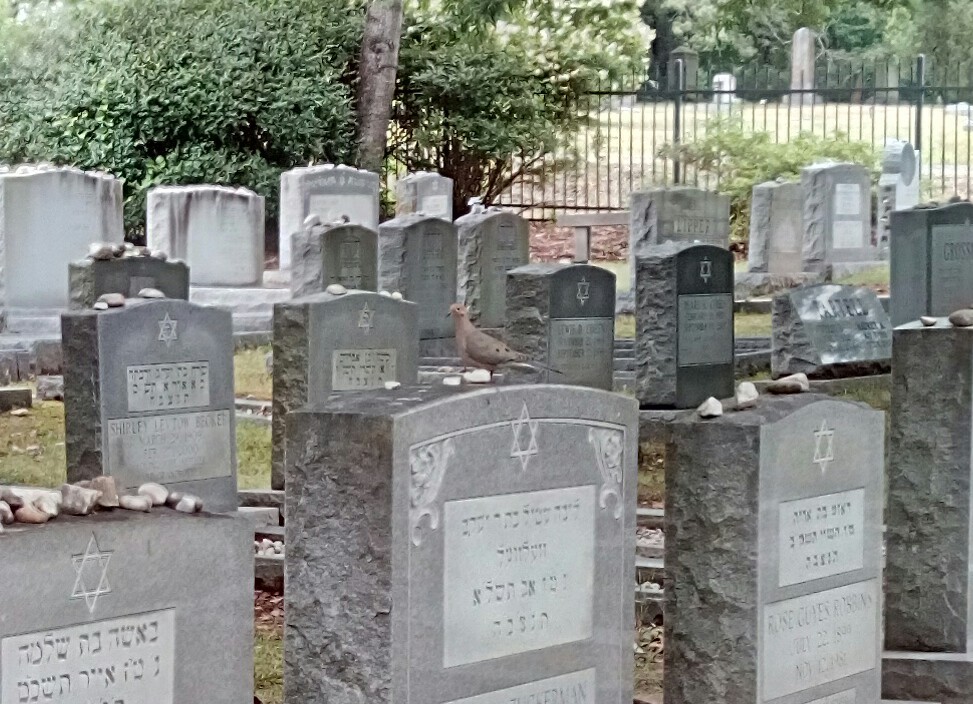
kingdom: Animalia
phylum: Chordata
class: Aves
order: Columbiformes
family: Columbidae
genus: Zenaida
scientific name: Zenaida macroura
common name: Mourning dove
